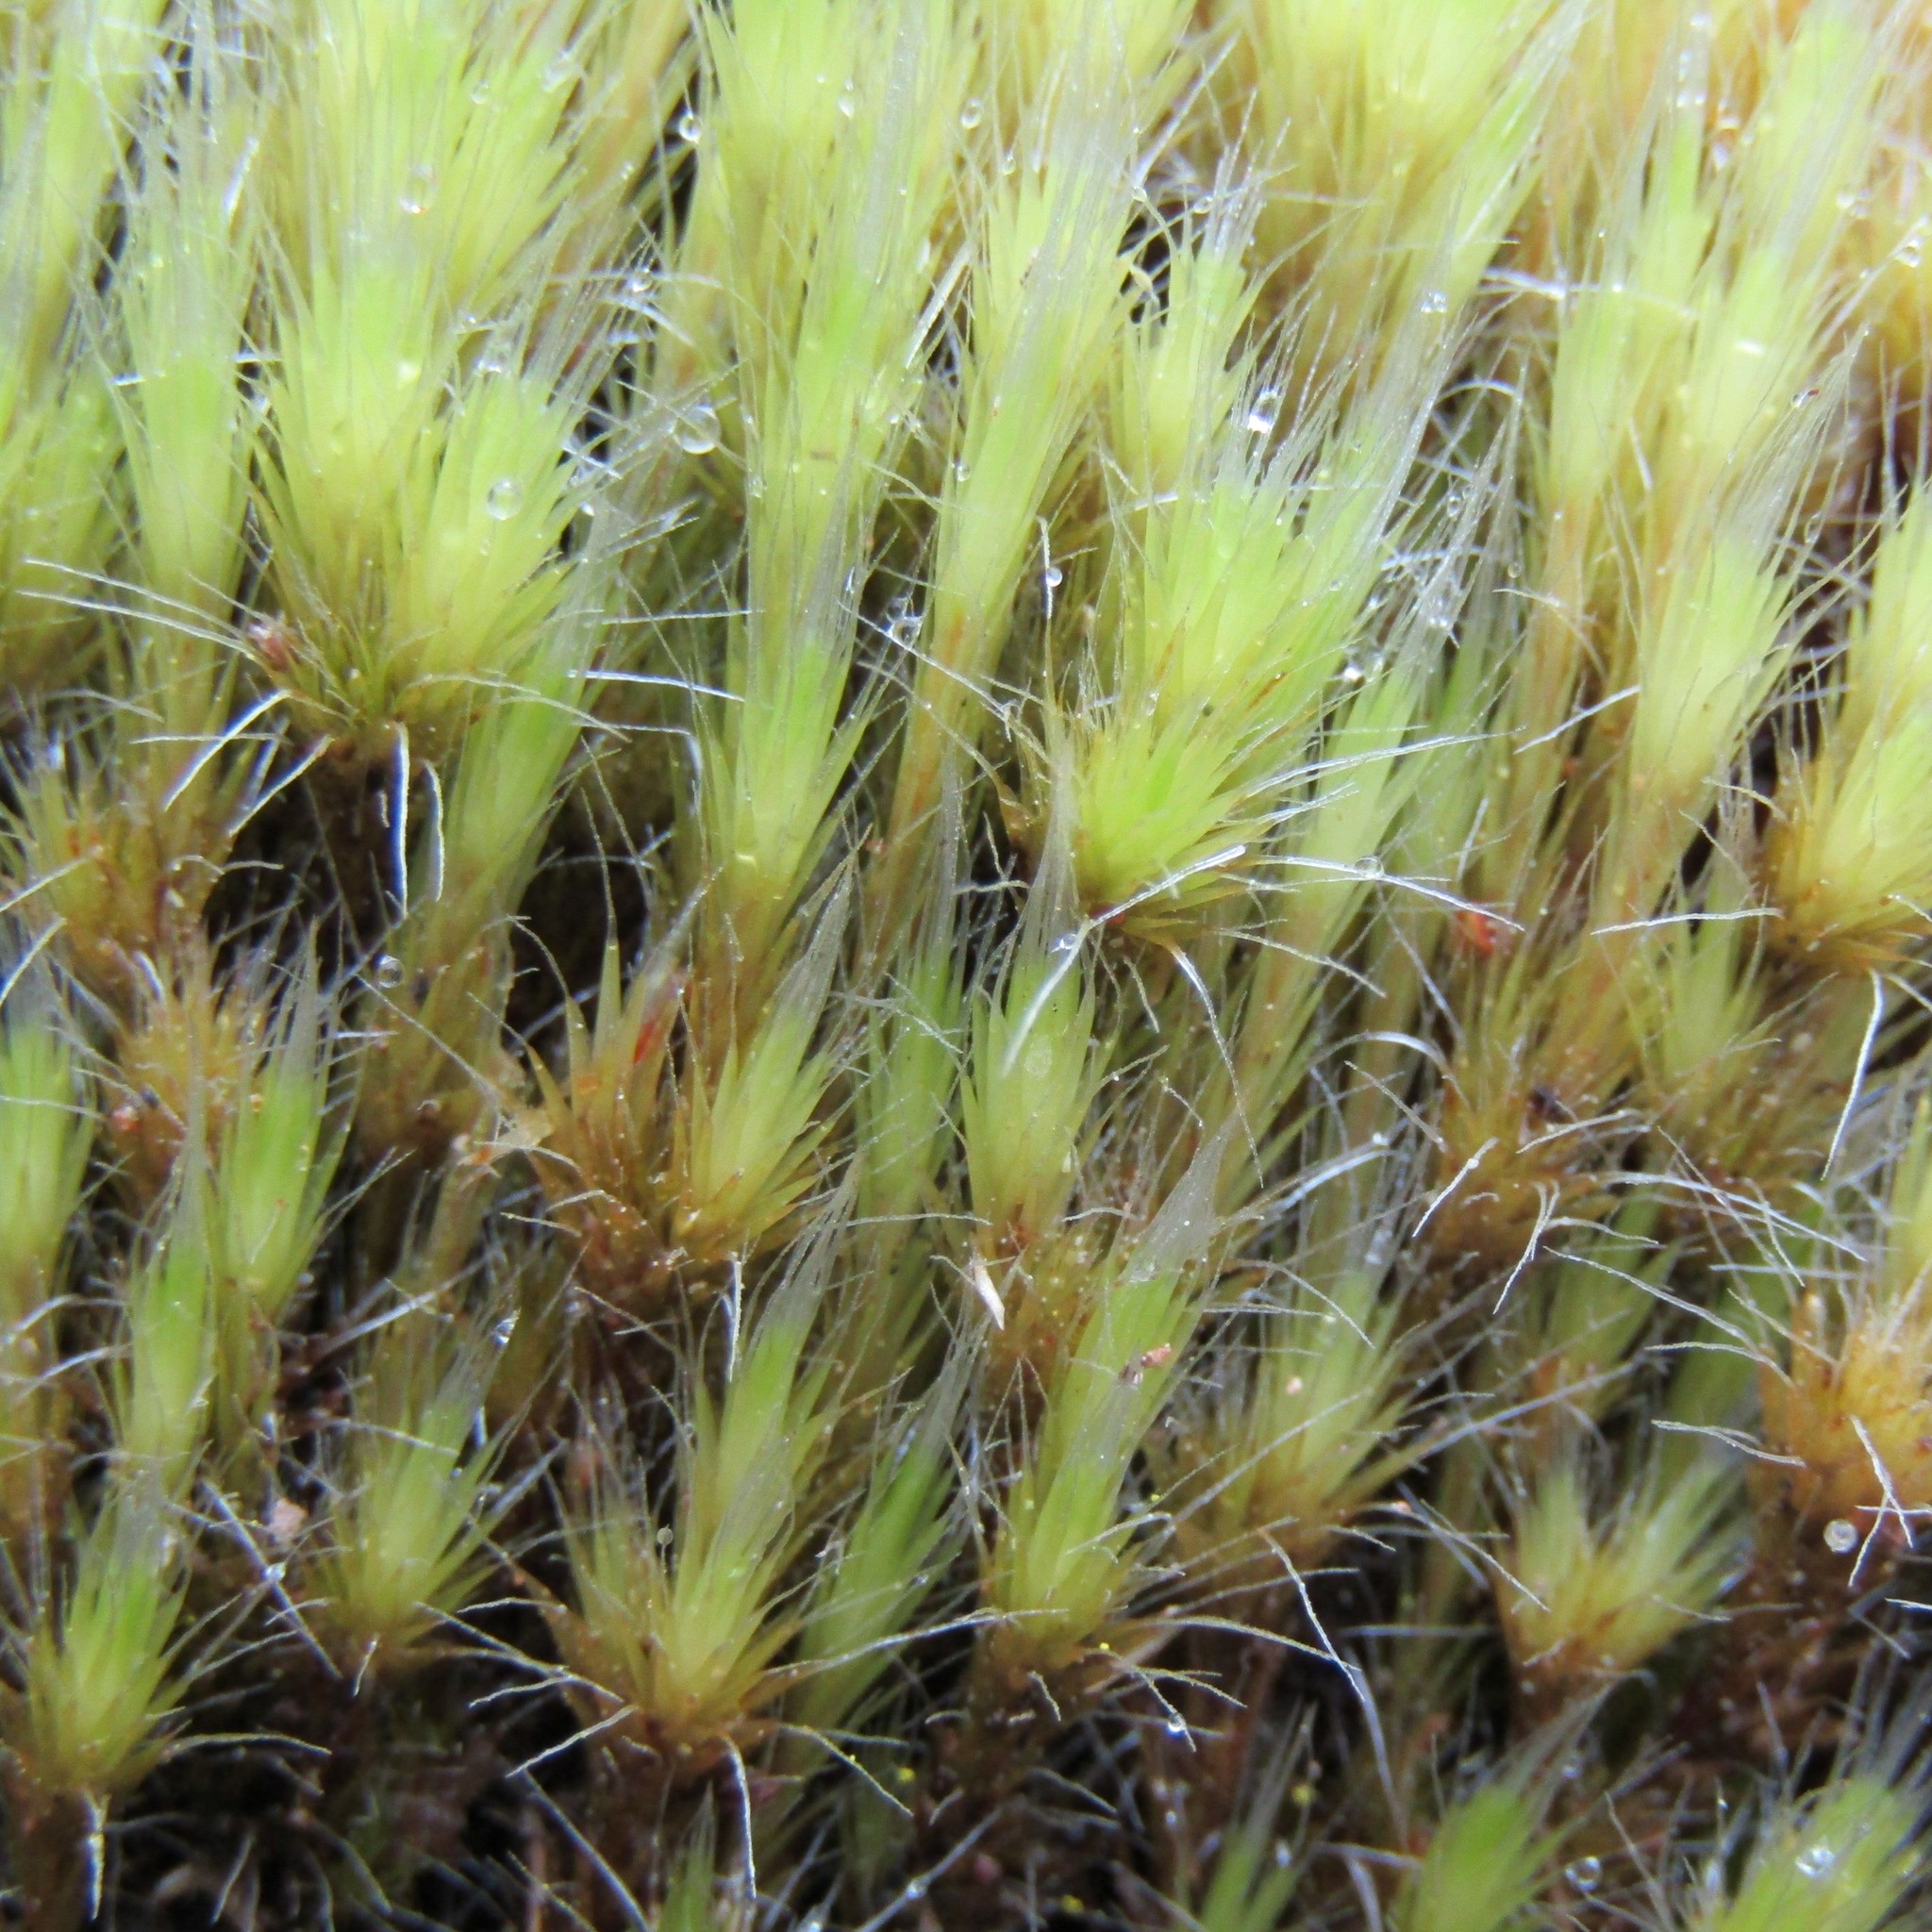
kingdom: Plantae
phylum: Bryophyta
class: Bryopsida
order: Dicranales
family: Leucobryaceae
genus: Campylopus
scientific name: Campylopus introflexus
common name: Heath star moss
